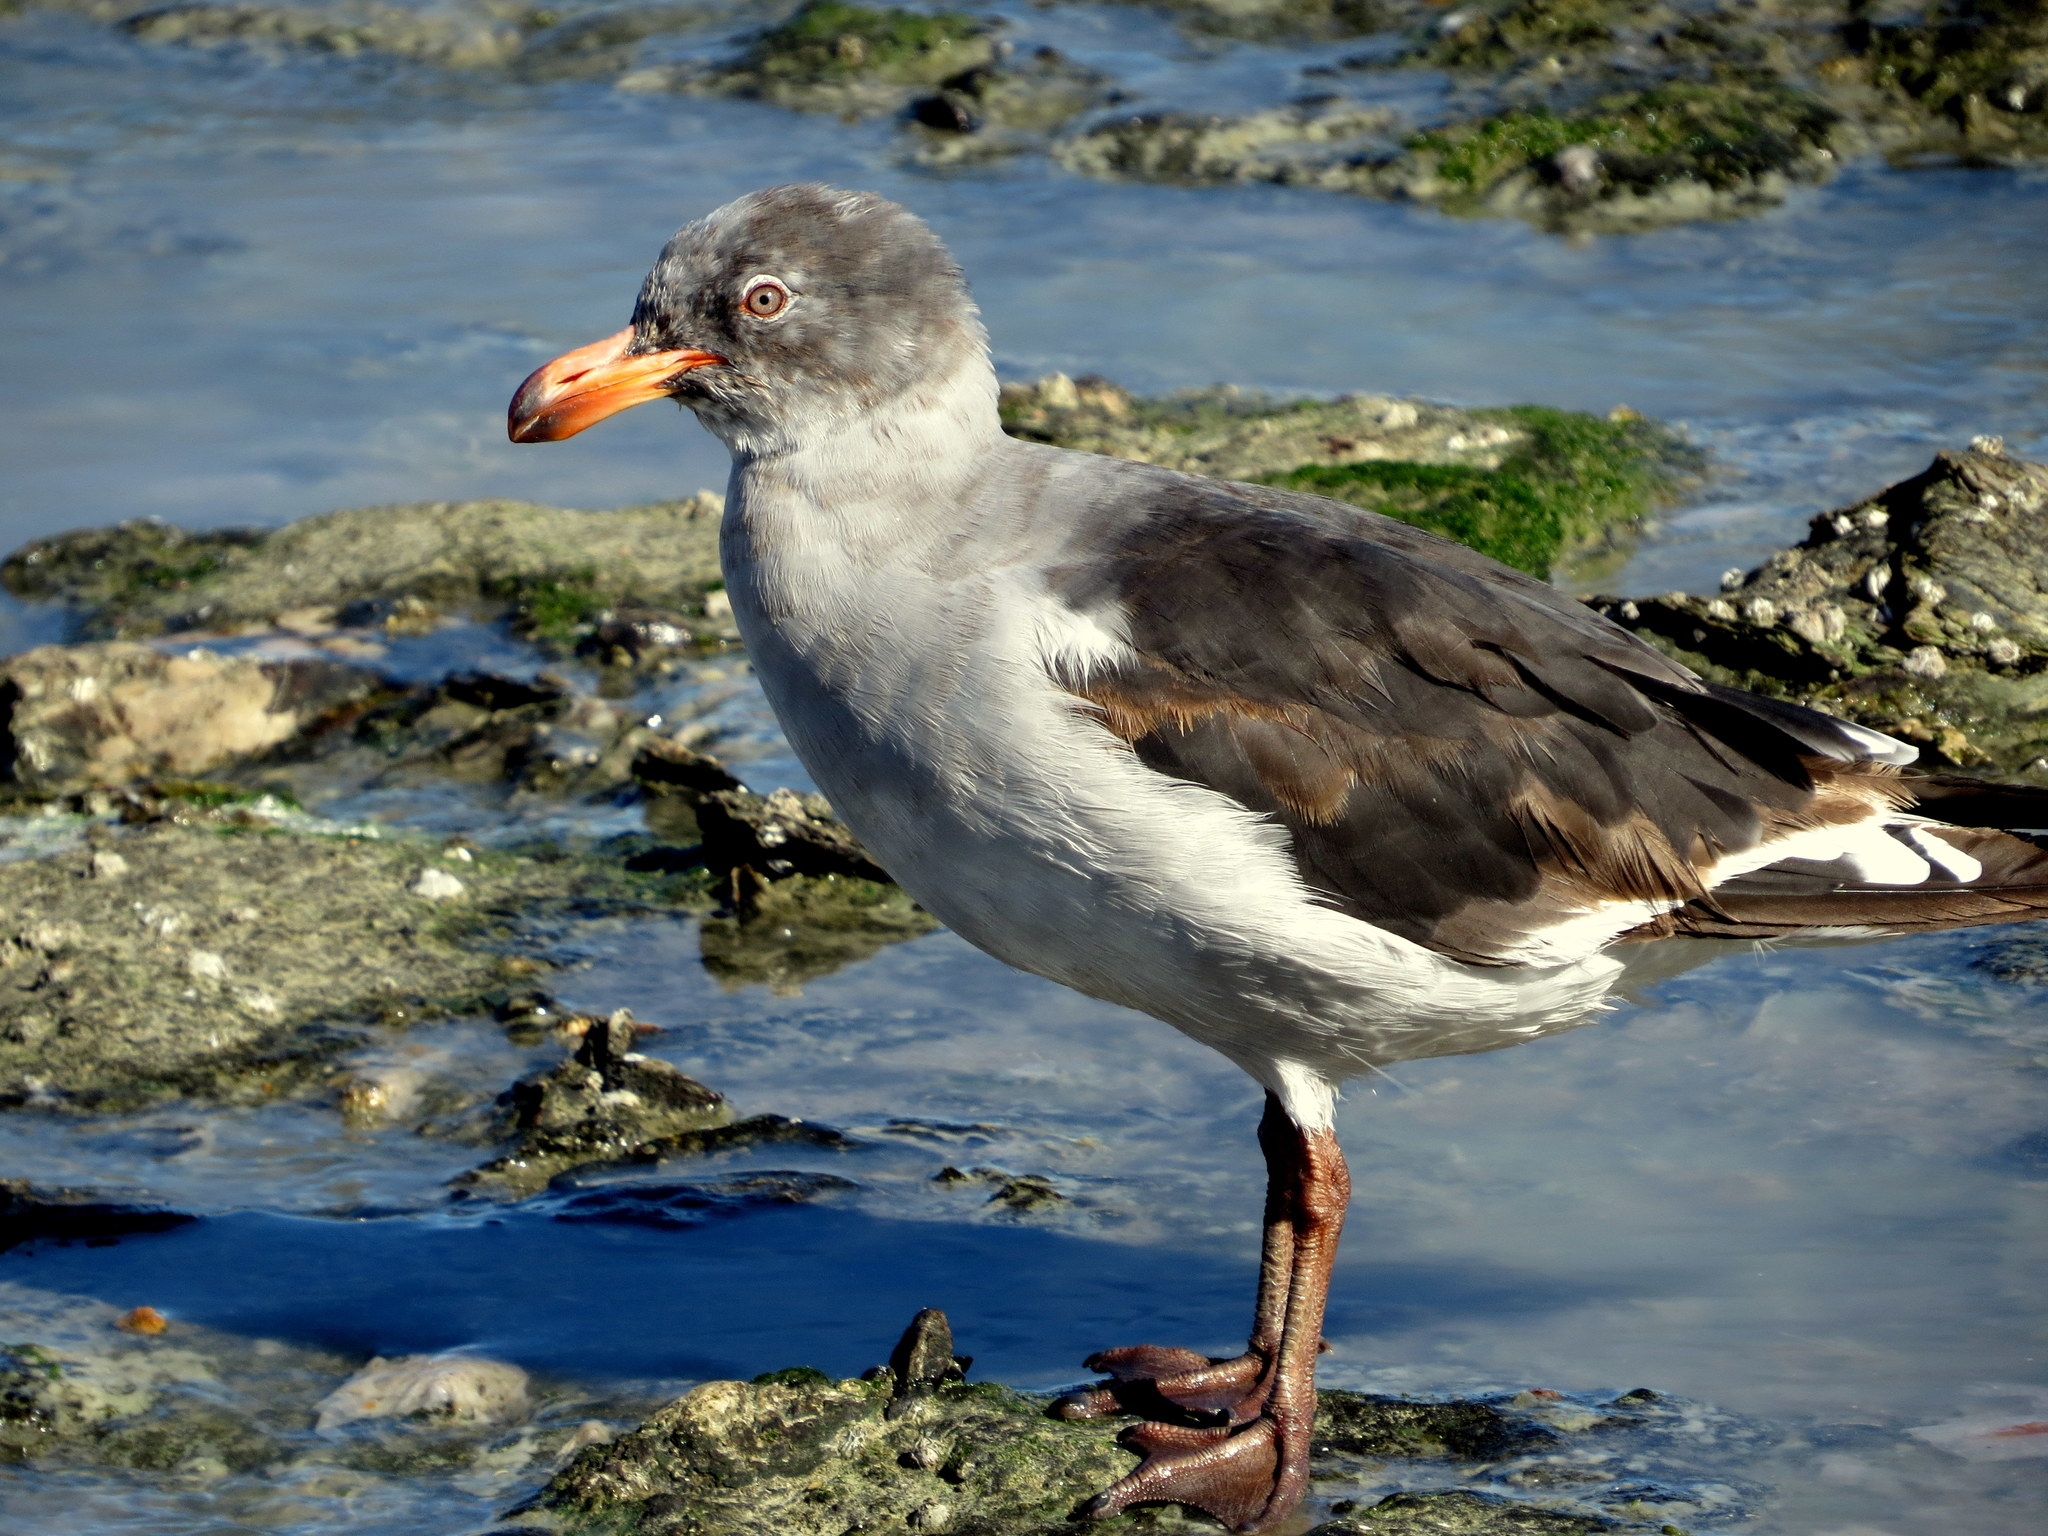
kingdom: Animalia
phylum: Chordata
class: Aves
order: Charadriiformes
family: Laridae
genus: Leucophaeus
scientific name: Leucophaeus scoresbii
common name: Dolphin gull
